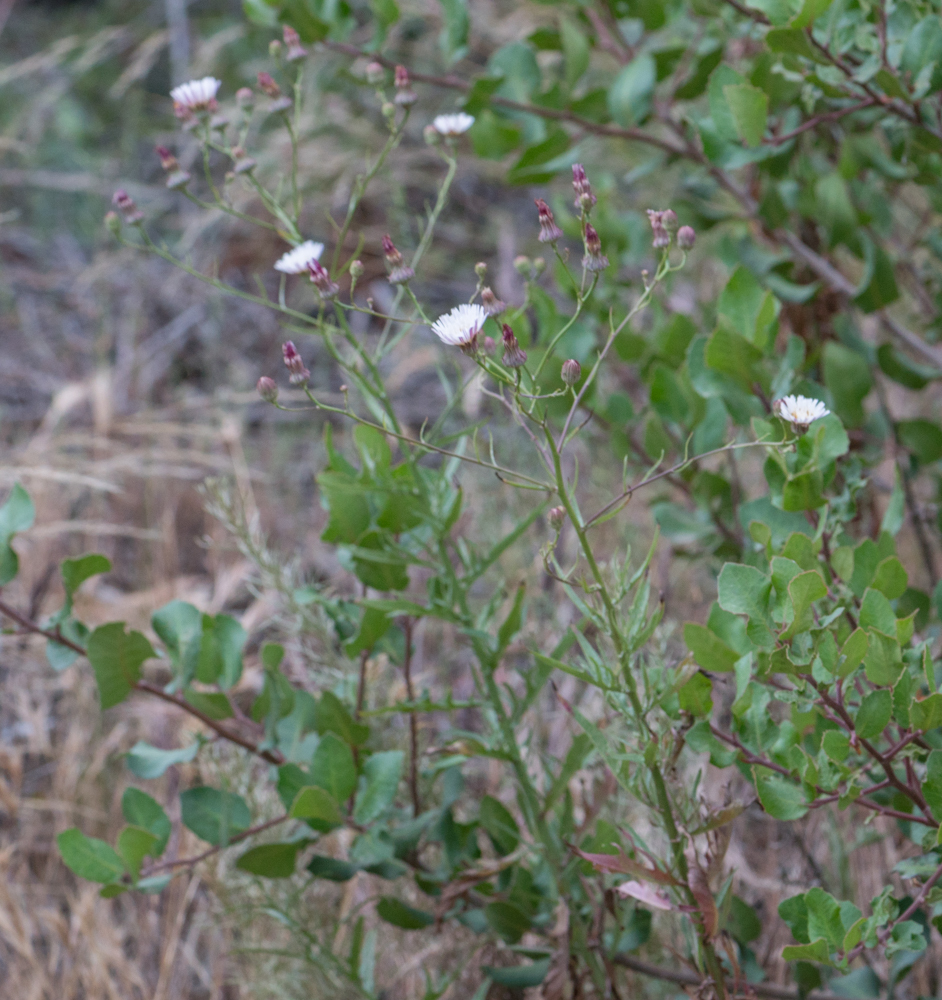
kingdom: Plantae
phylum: Tracheophyta
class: Magnoliopsida
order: Asterales
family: Asteraceae
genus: Malacothrix
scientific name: Malacothrix saxatilis
